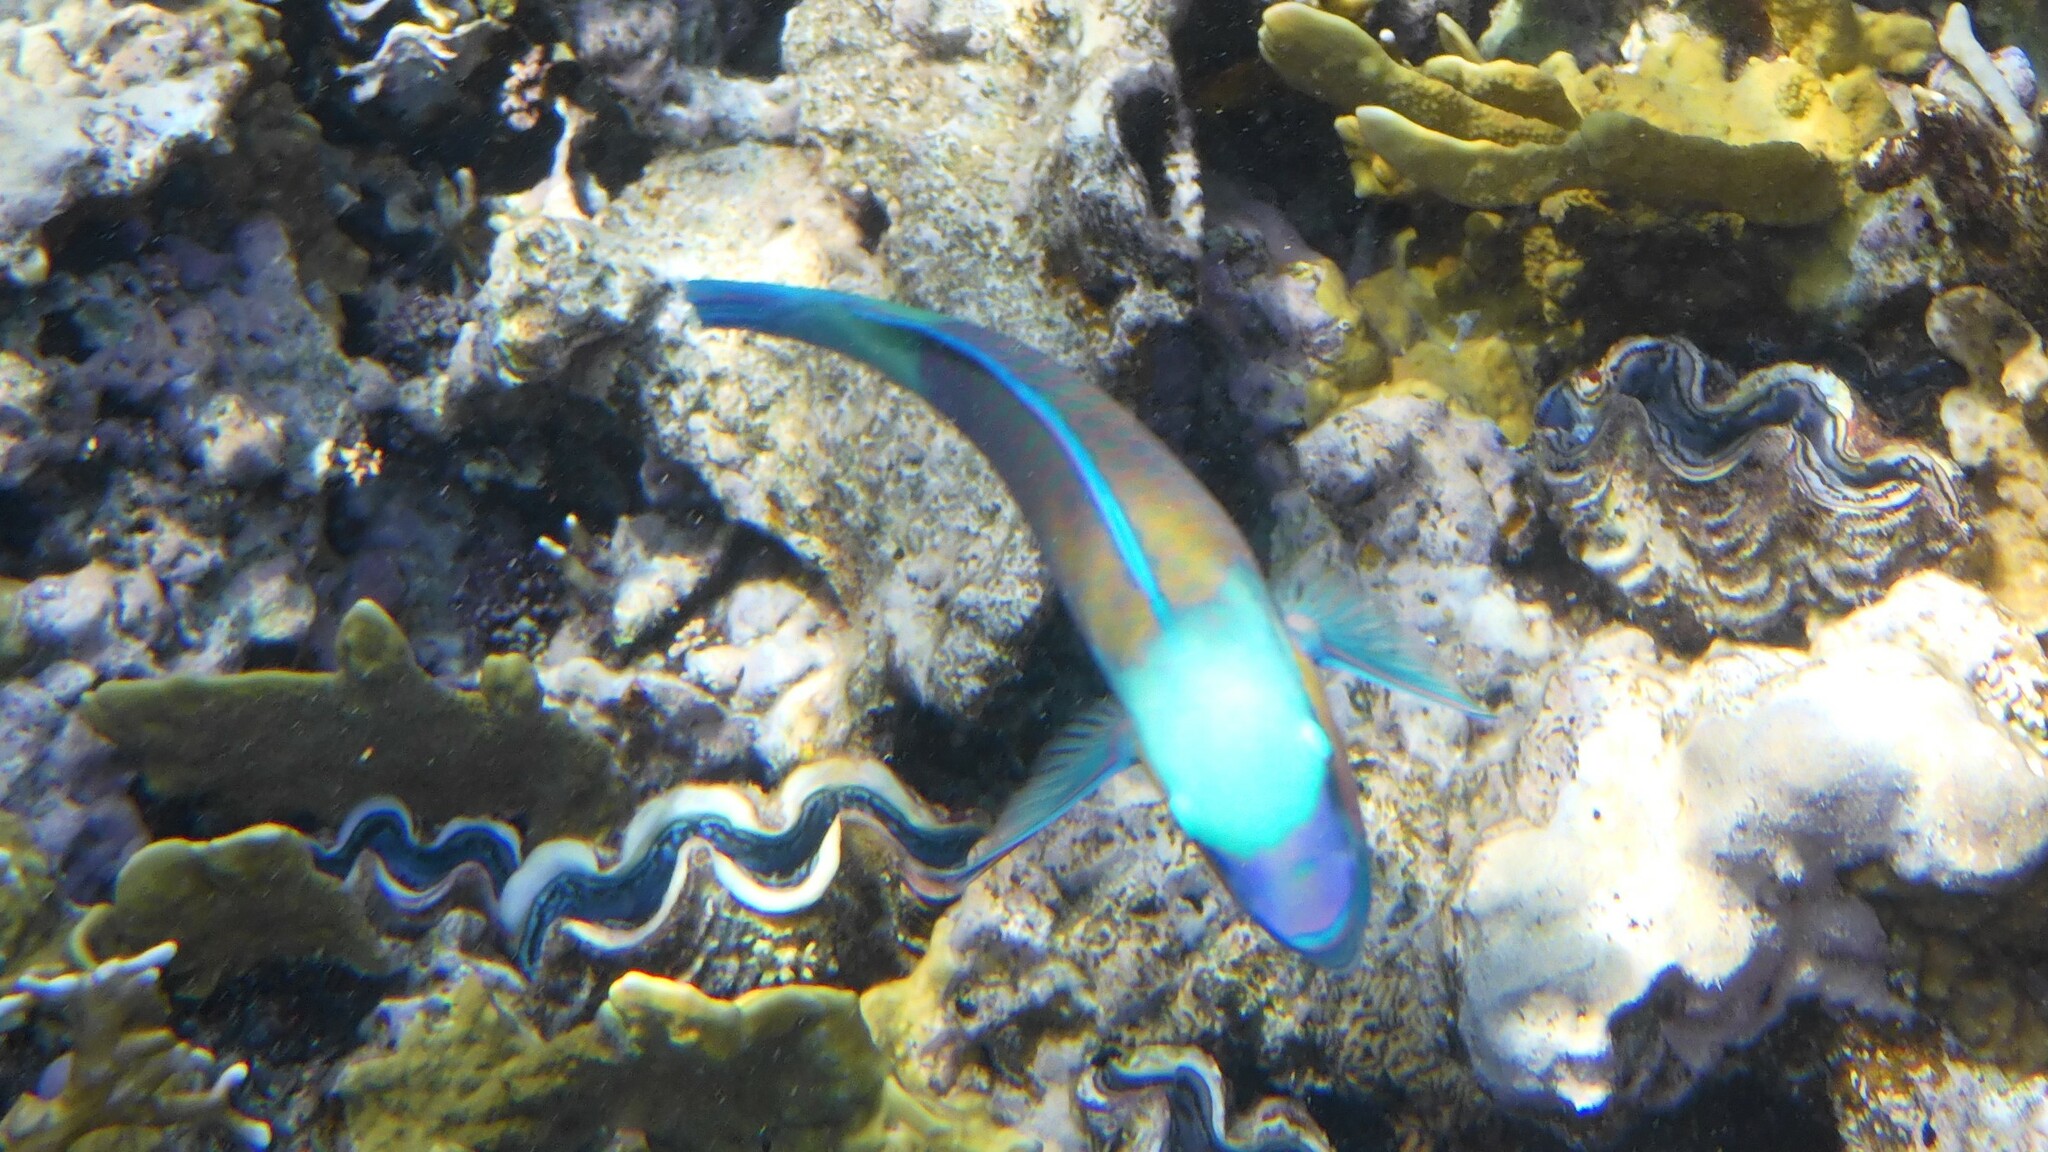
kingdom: Animalia
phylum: Chordata
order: Perciformes
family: Scaridae
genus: Chlorurus
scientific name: Chlorurus sordidus
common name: Bullethead parrotfish
